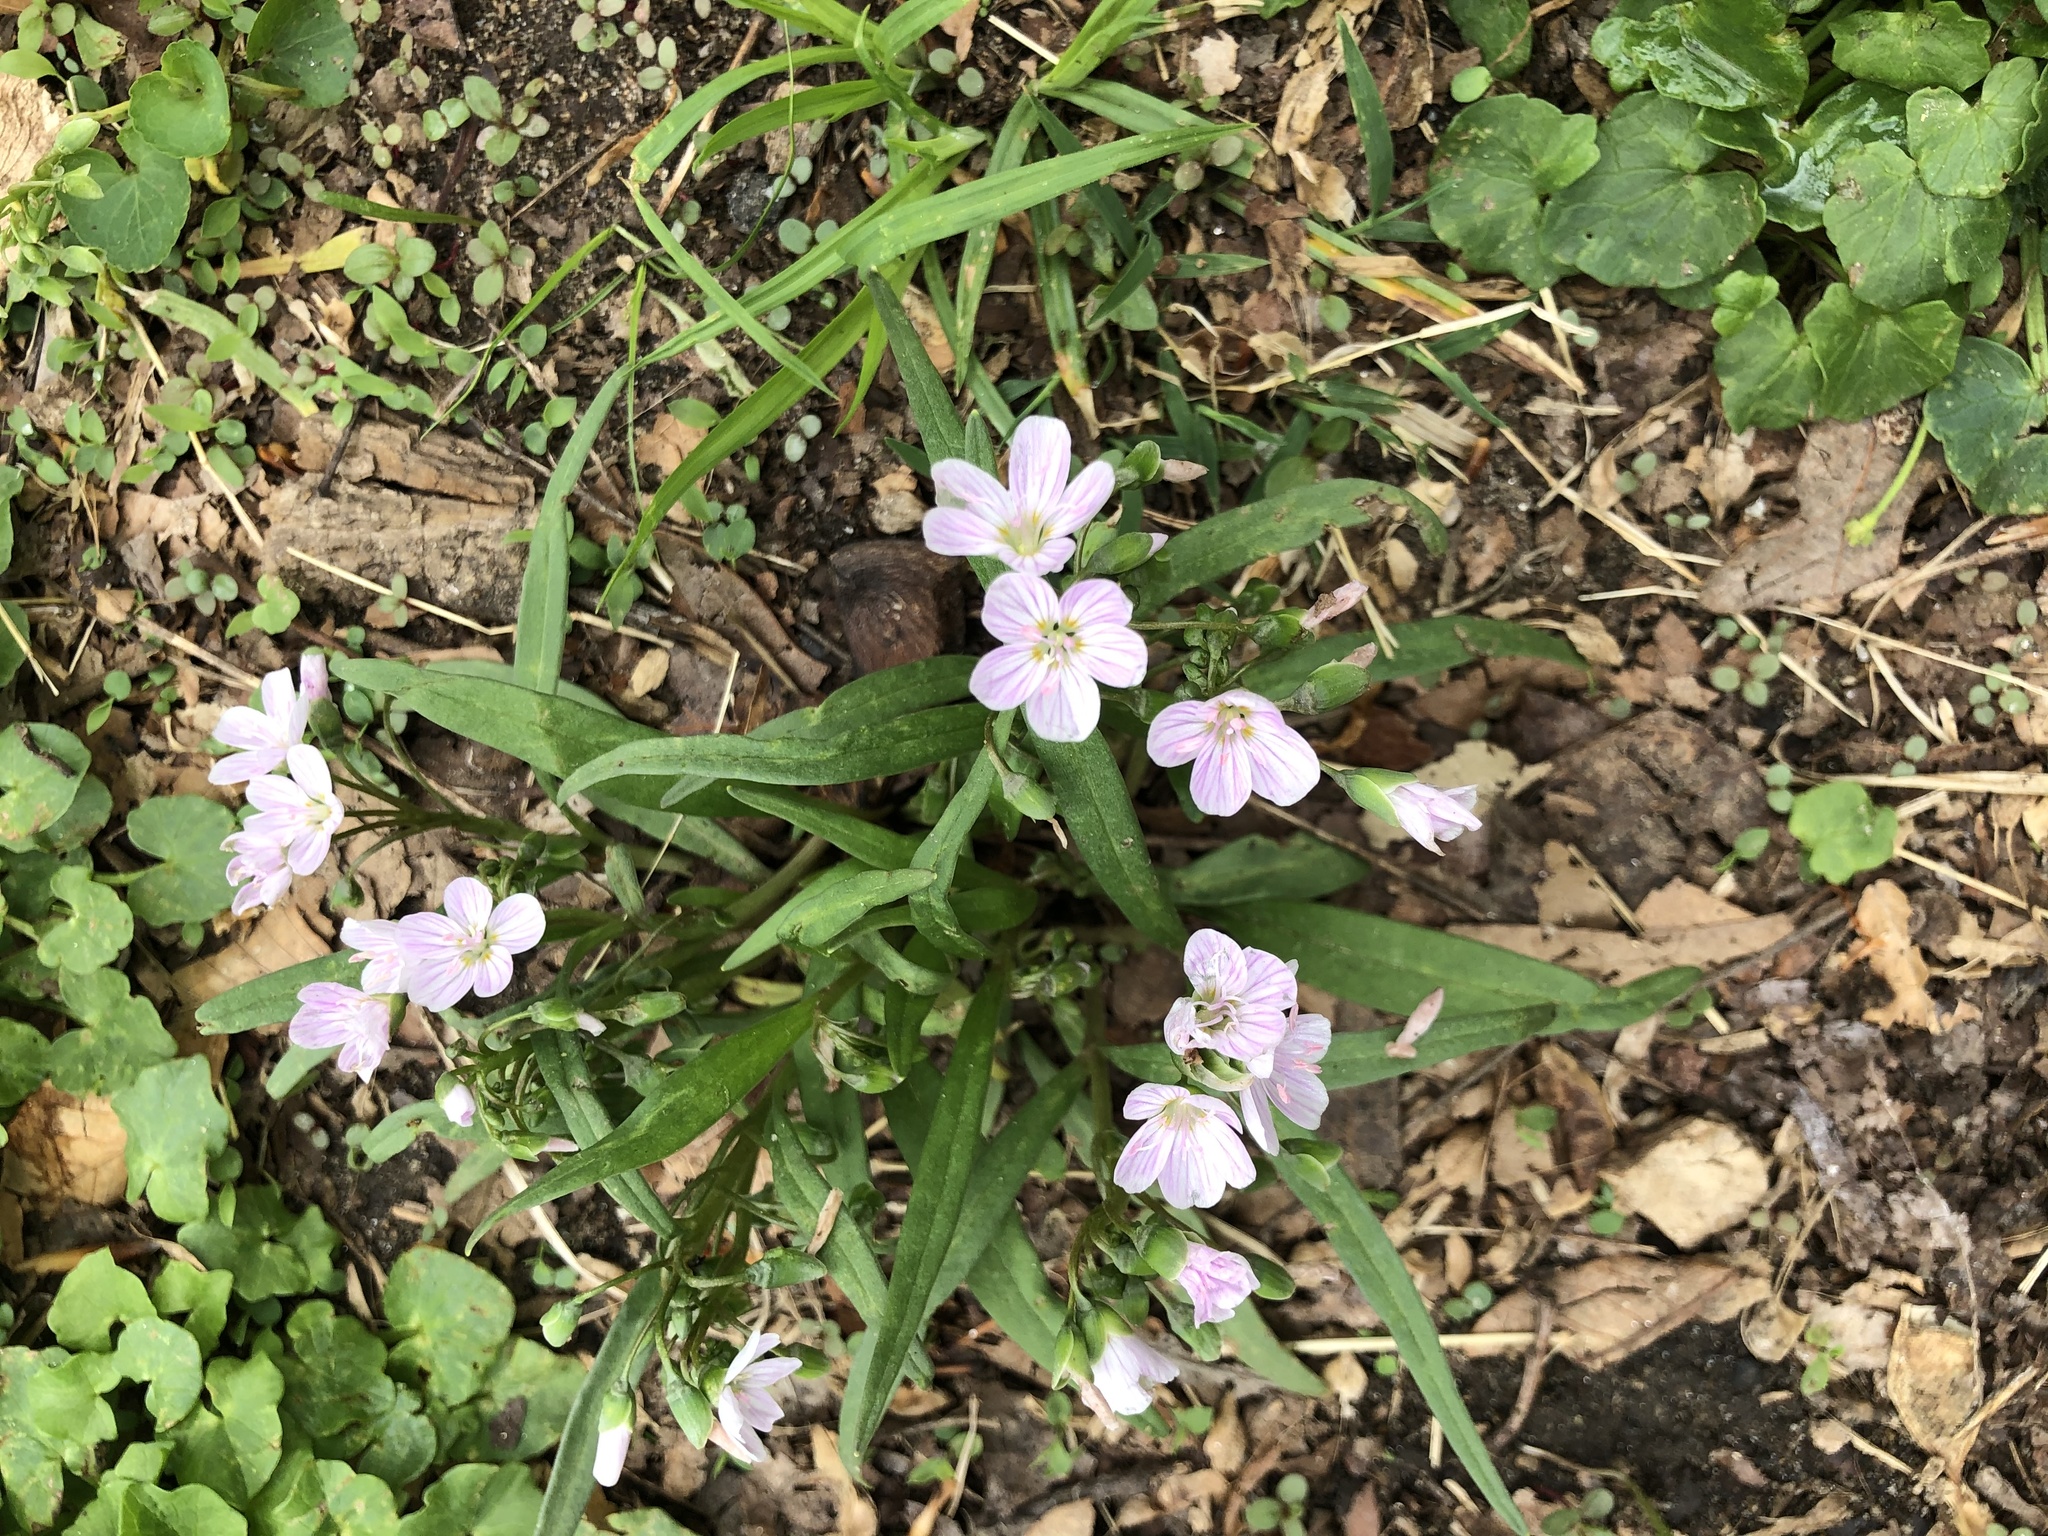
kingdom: Plantae
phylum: Tracheophyta
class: Magnoliopsida
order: Caryophyllales
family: Montiaceae
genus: Claytonia
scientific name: Claytonia virginica
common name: Virginia springbeauty
